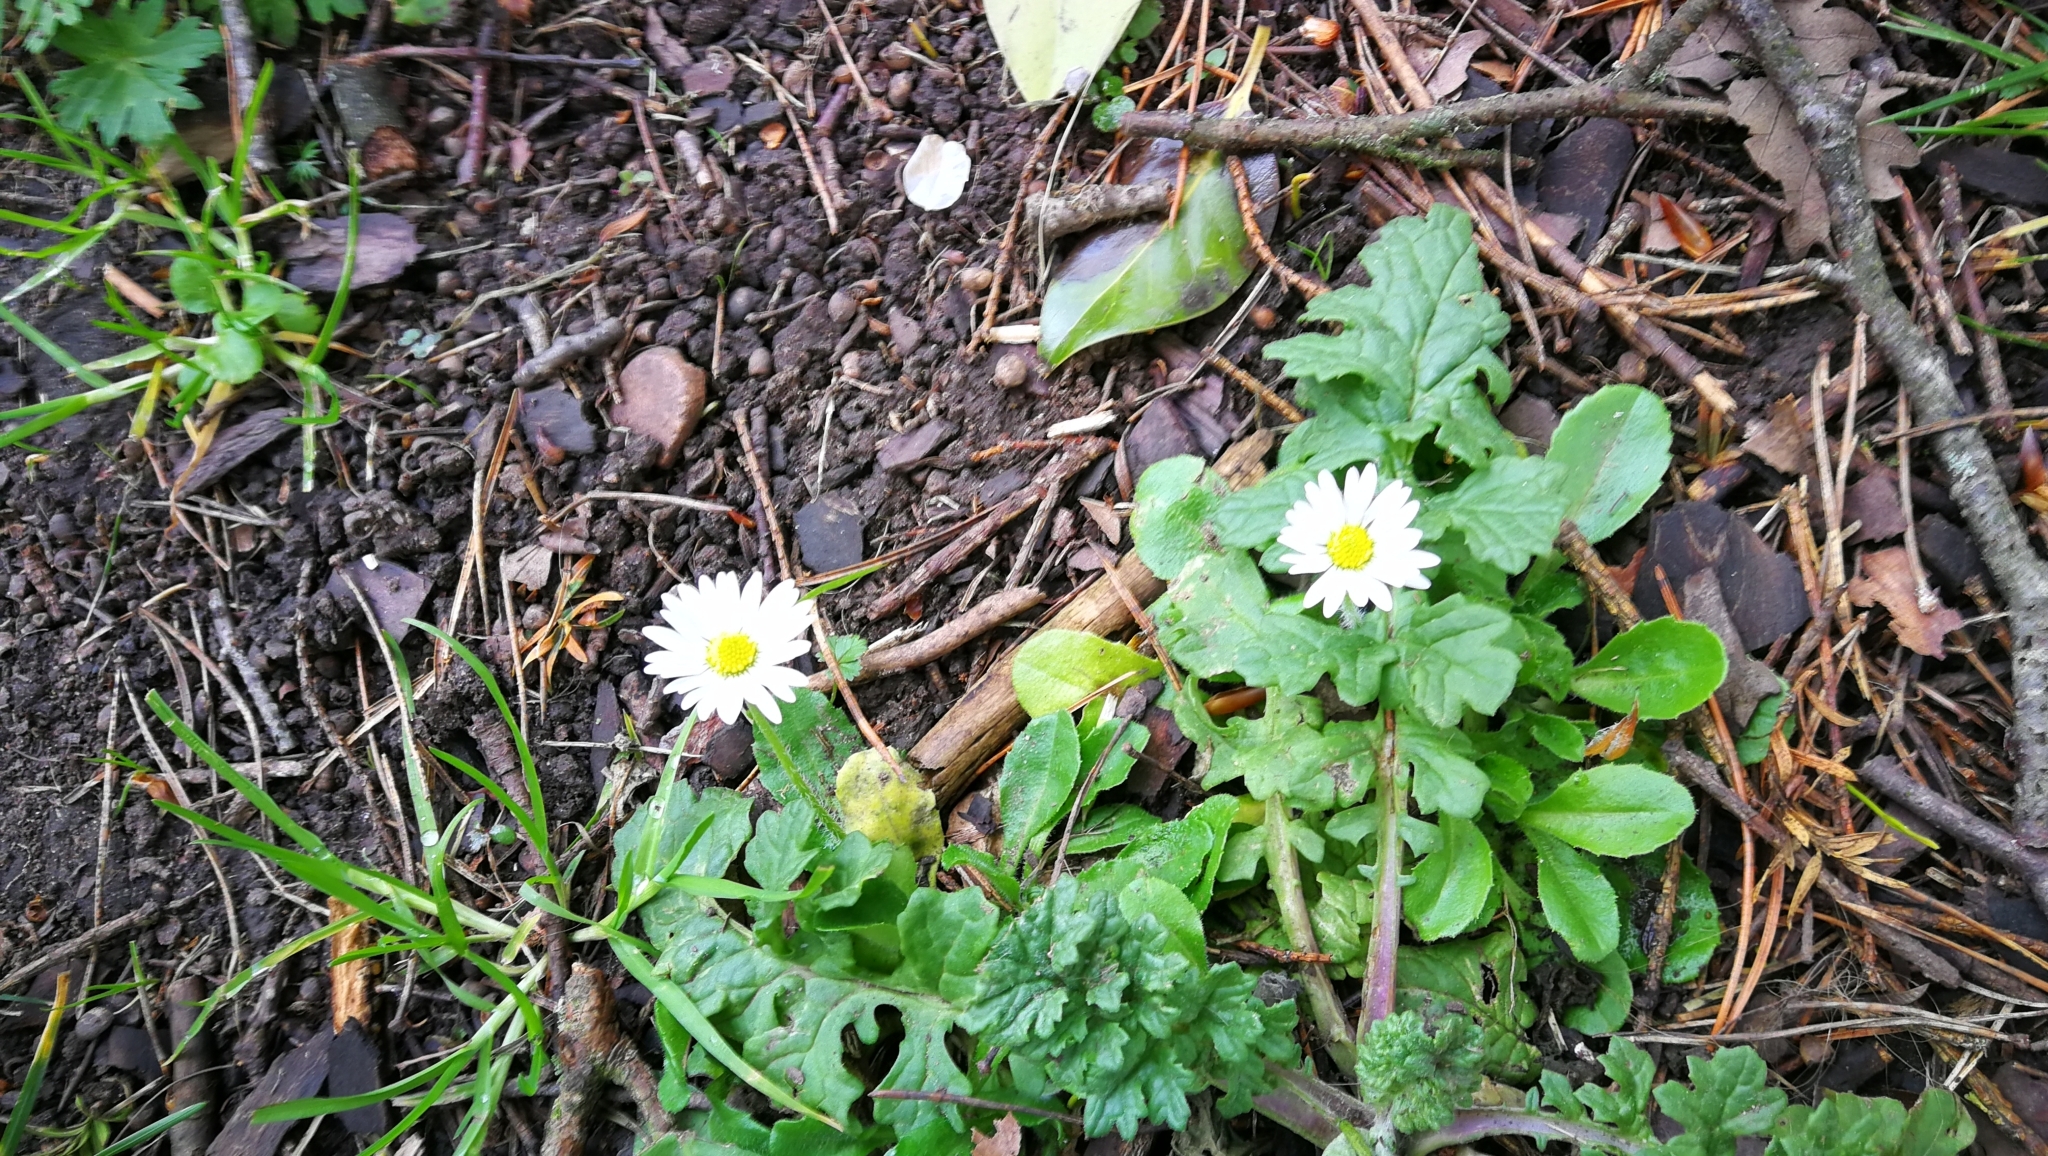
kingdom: Plantae
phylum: Tracheophyta
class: Magnoliopsida
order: Asterales
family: Asteraceae
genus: Bellis
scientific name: Bellis perennis
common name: Lawndaisy
